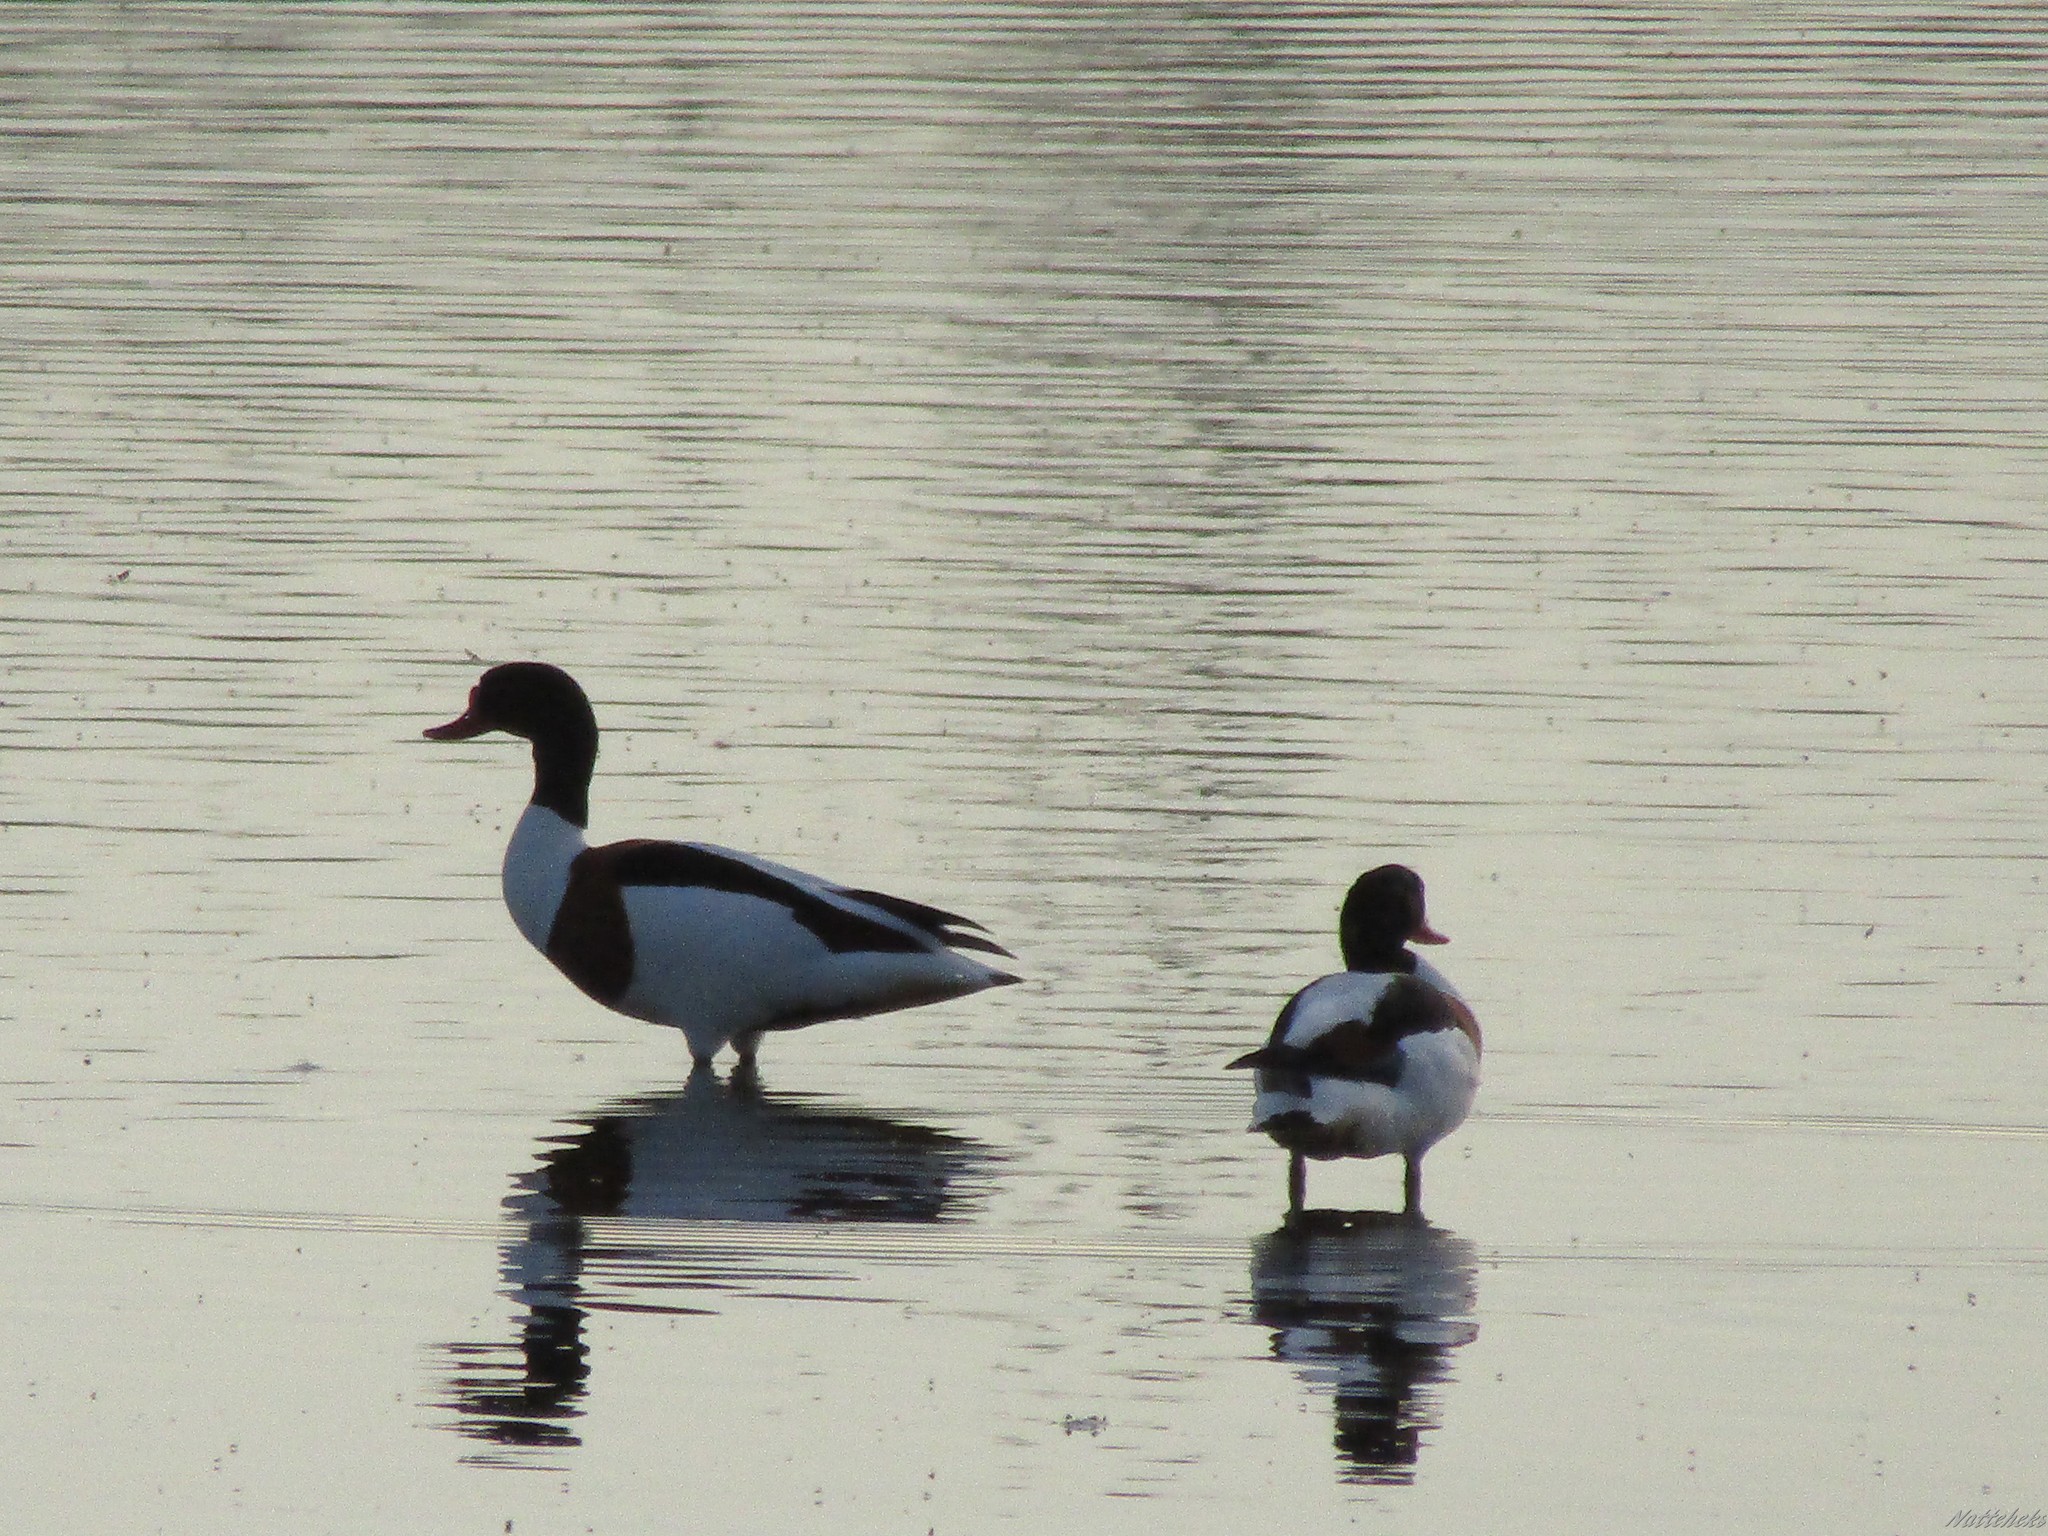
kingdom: Animalia
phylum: Chordata
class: Aves
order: Anseriformes
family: Anatidae
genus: Tadorna
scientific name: Tadorna tadorna
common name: Common shelduck
